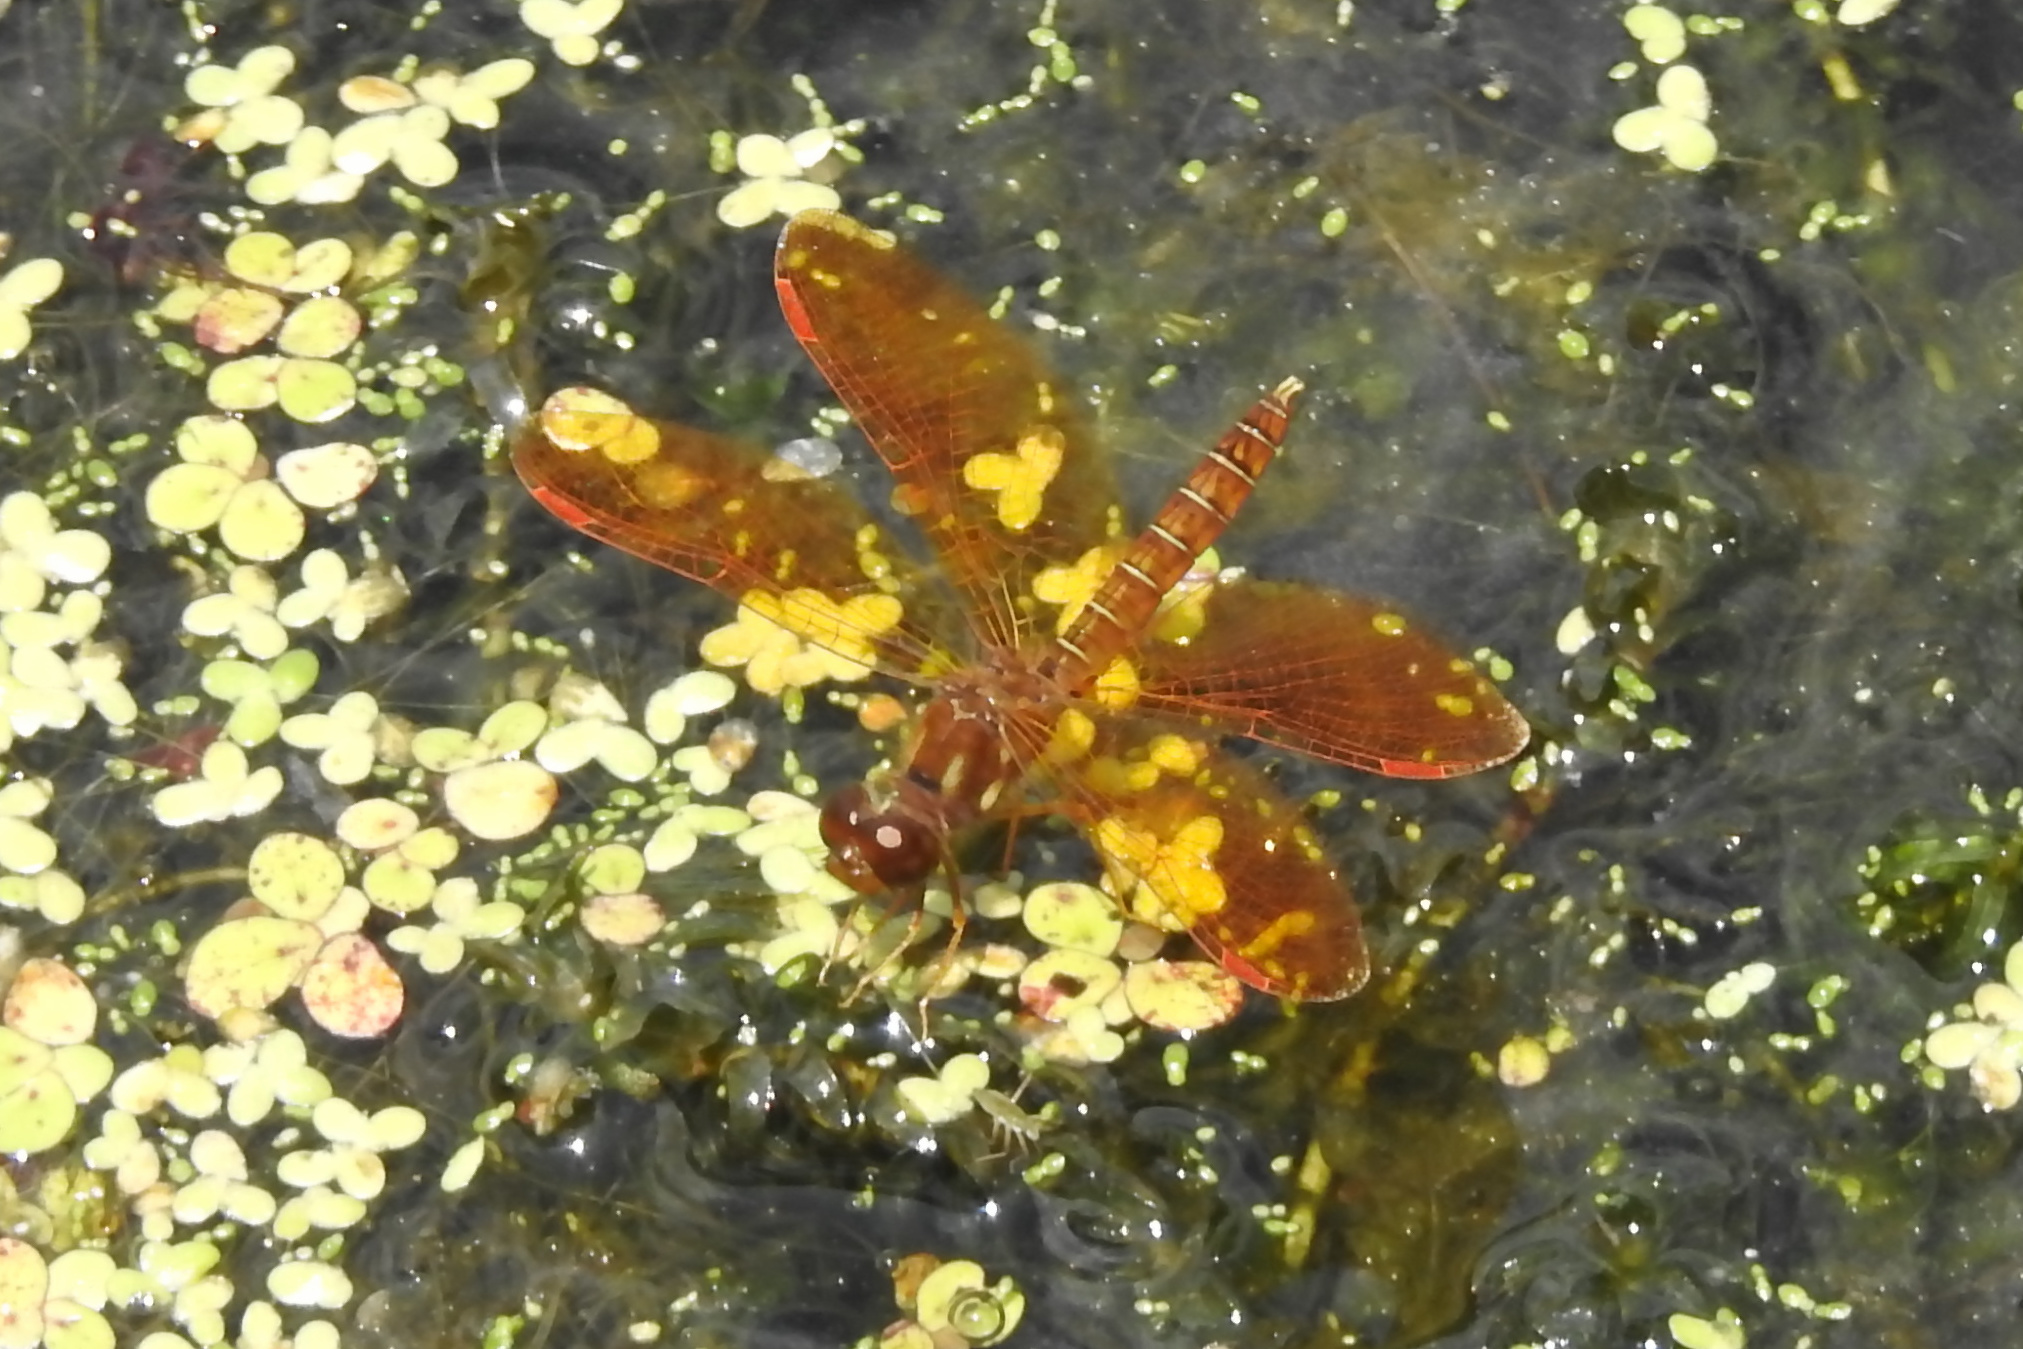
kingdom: Animalia
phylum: Arthropoda
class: Insecta
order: Odonata
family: Libellulidae
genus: Perithemis
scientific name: Perithemis tenera
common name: Eastern amberwing
